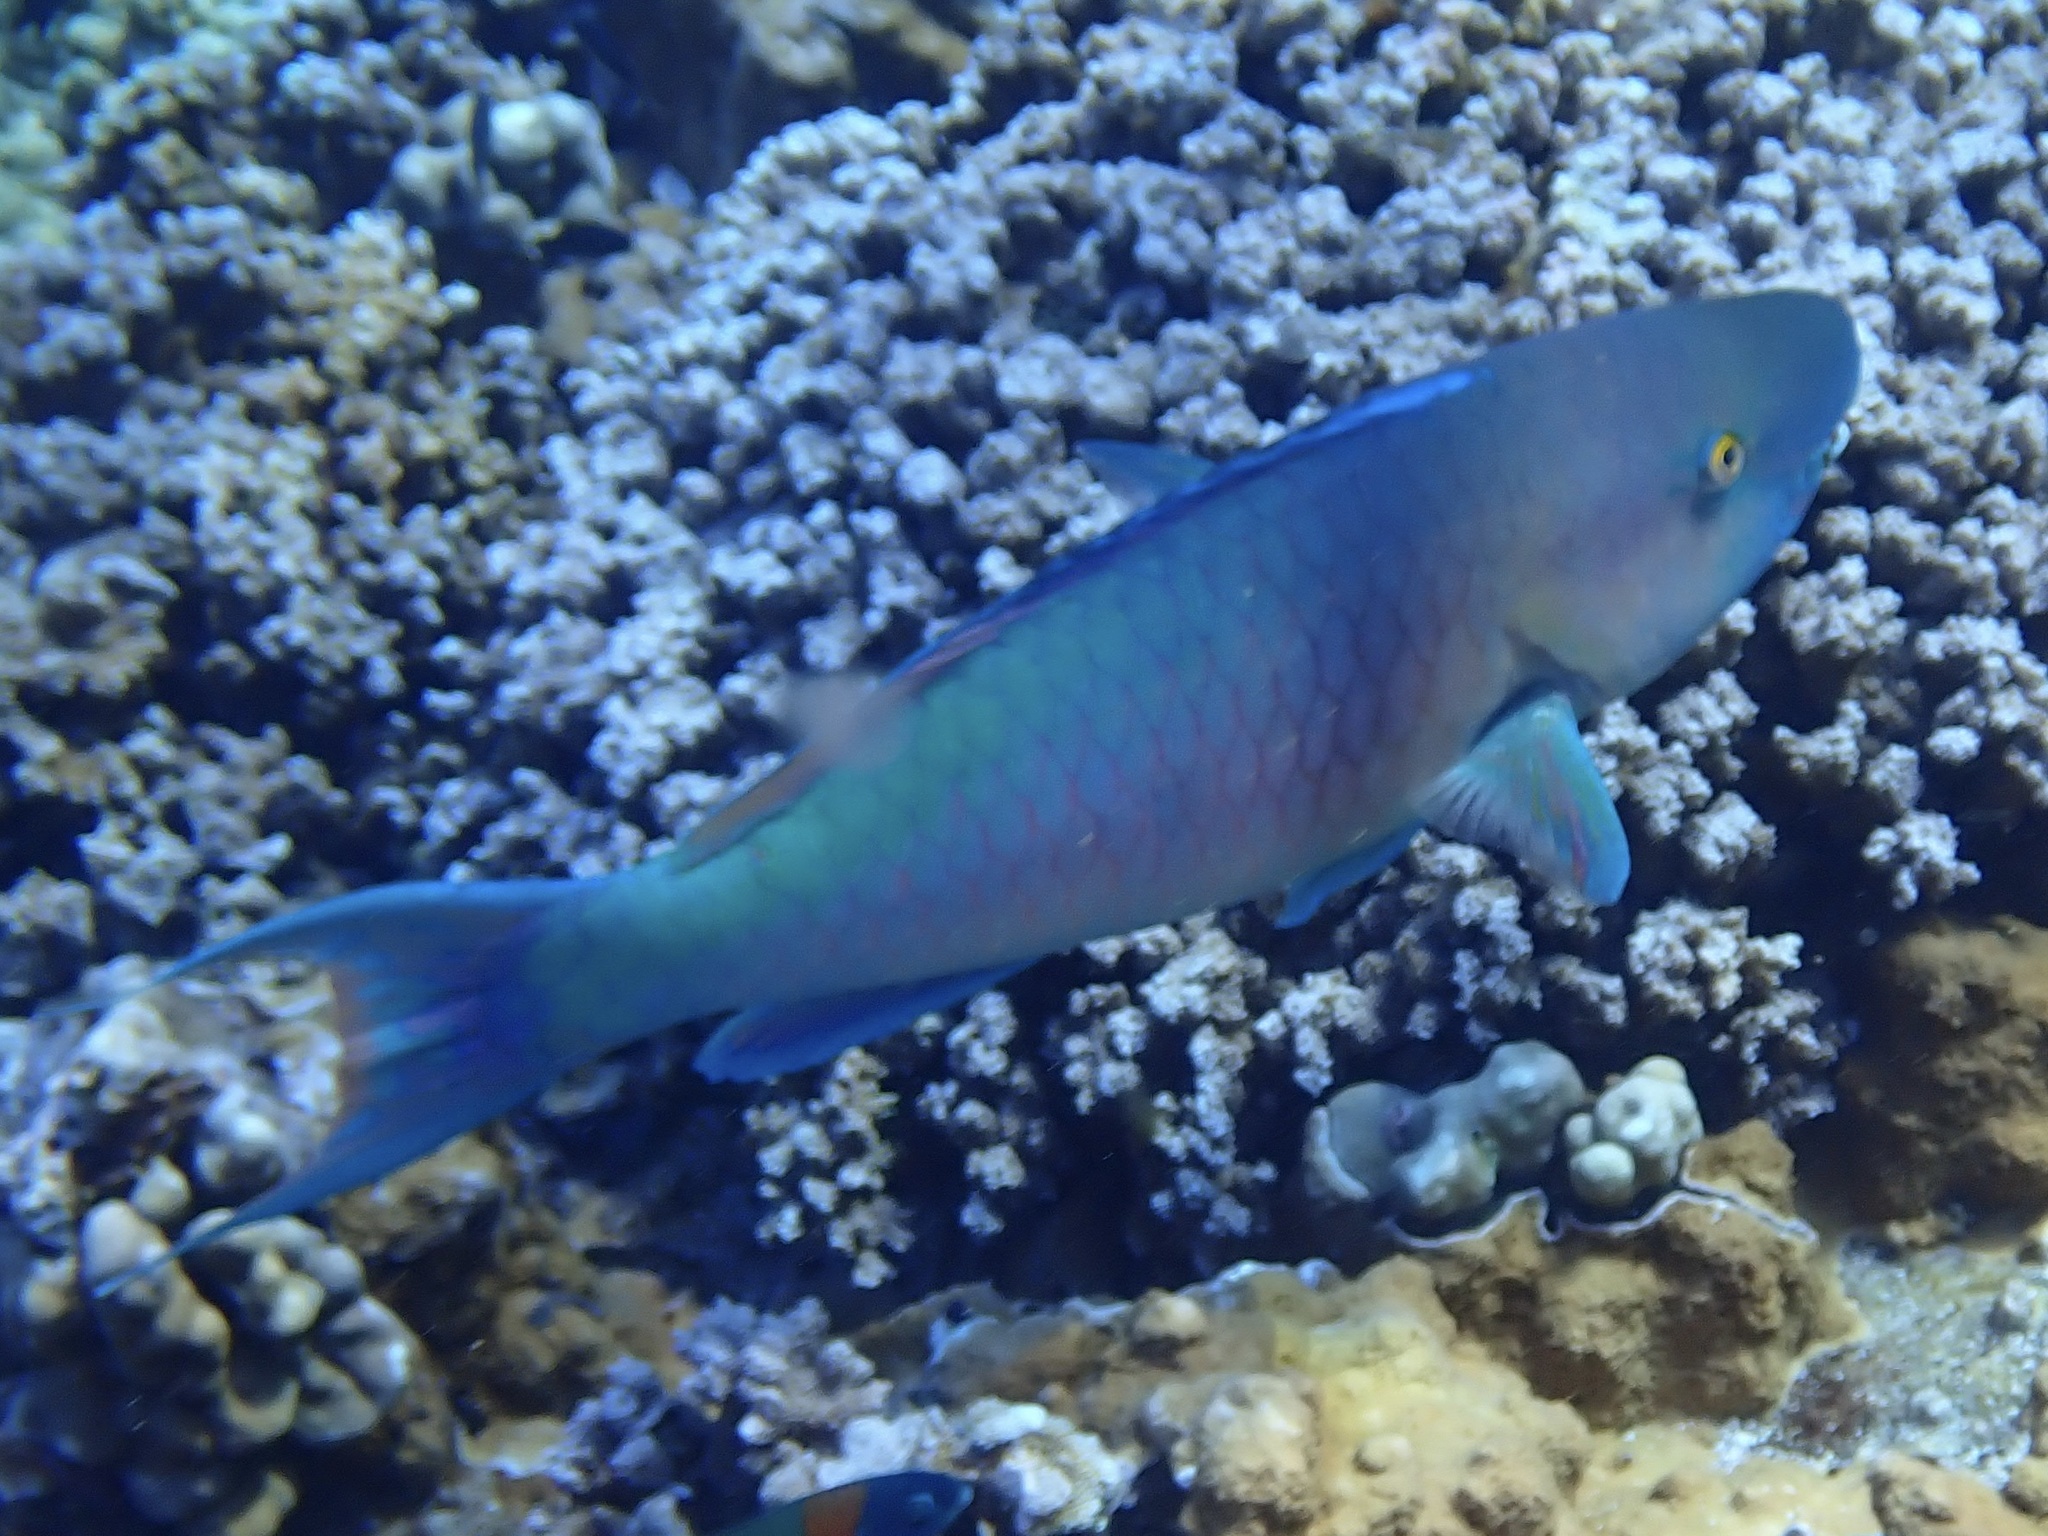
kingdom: Animalia
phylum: Chordata
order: Perciformes
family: Scaridae
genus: Scarus
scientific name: Scarus rubroviolaceus
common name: Ember parrotfish
